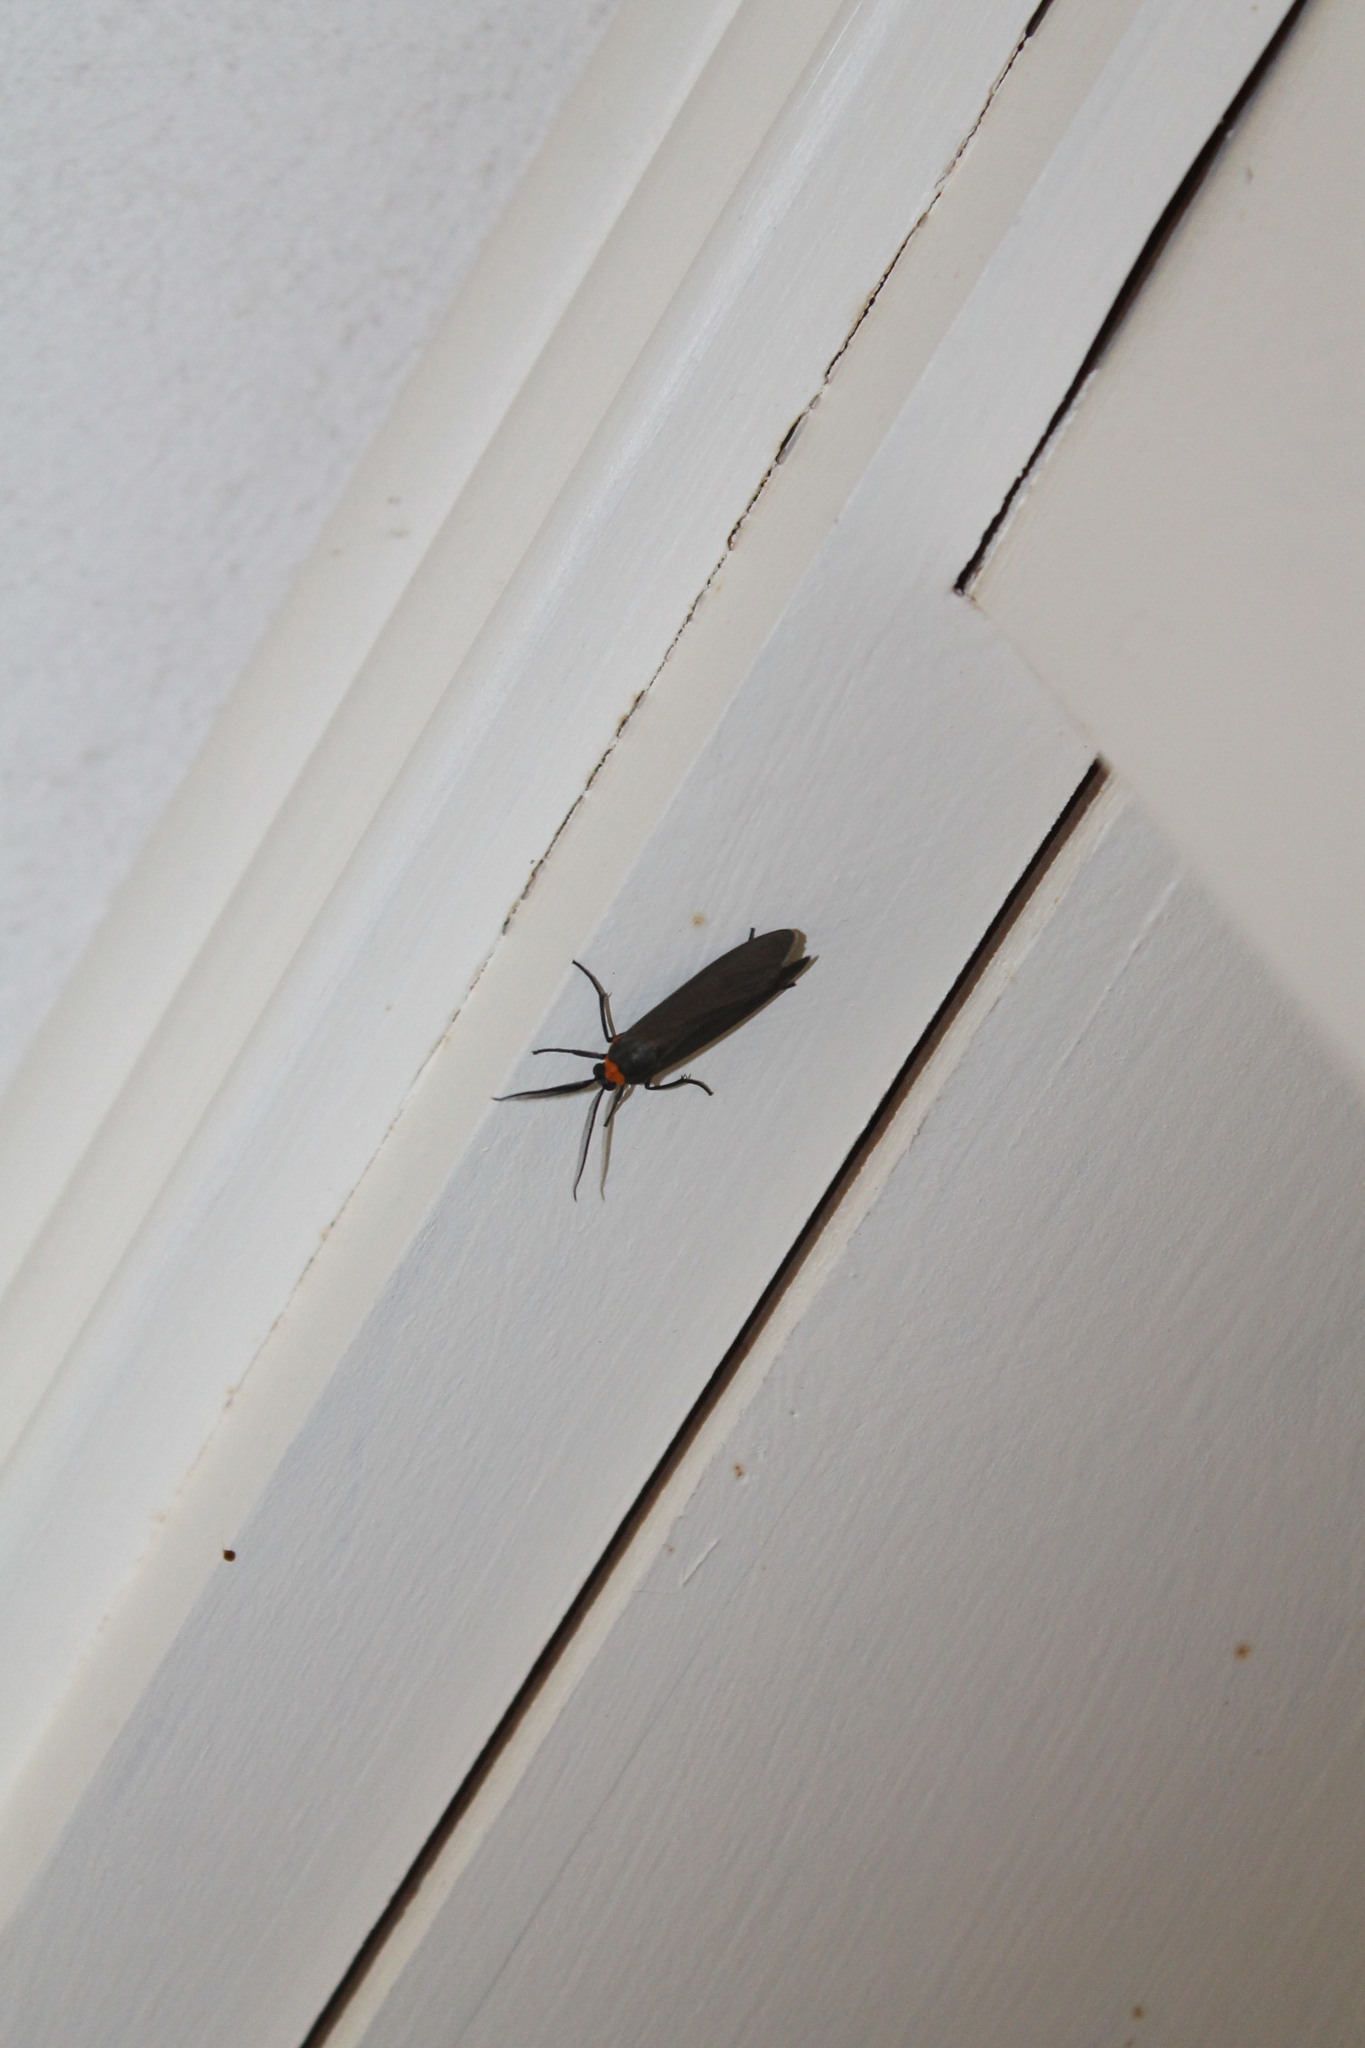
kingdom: Animalia
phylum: Arthropoda
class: Insecta
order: Lepidoptera
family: Erebidae
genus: Cisseps
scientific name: Cisseps fulvicollis
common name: Yellow-collared scape moth
